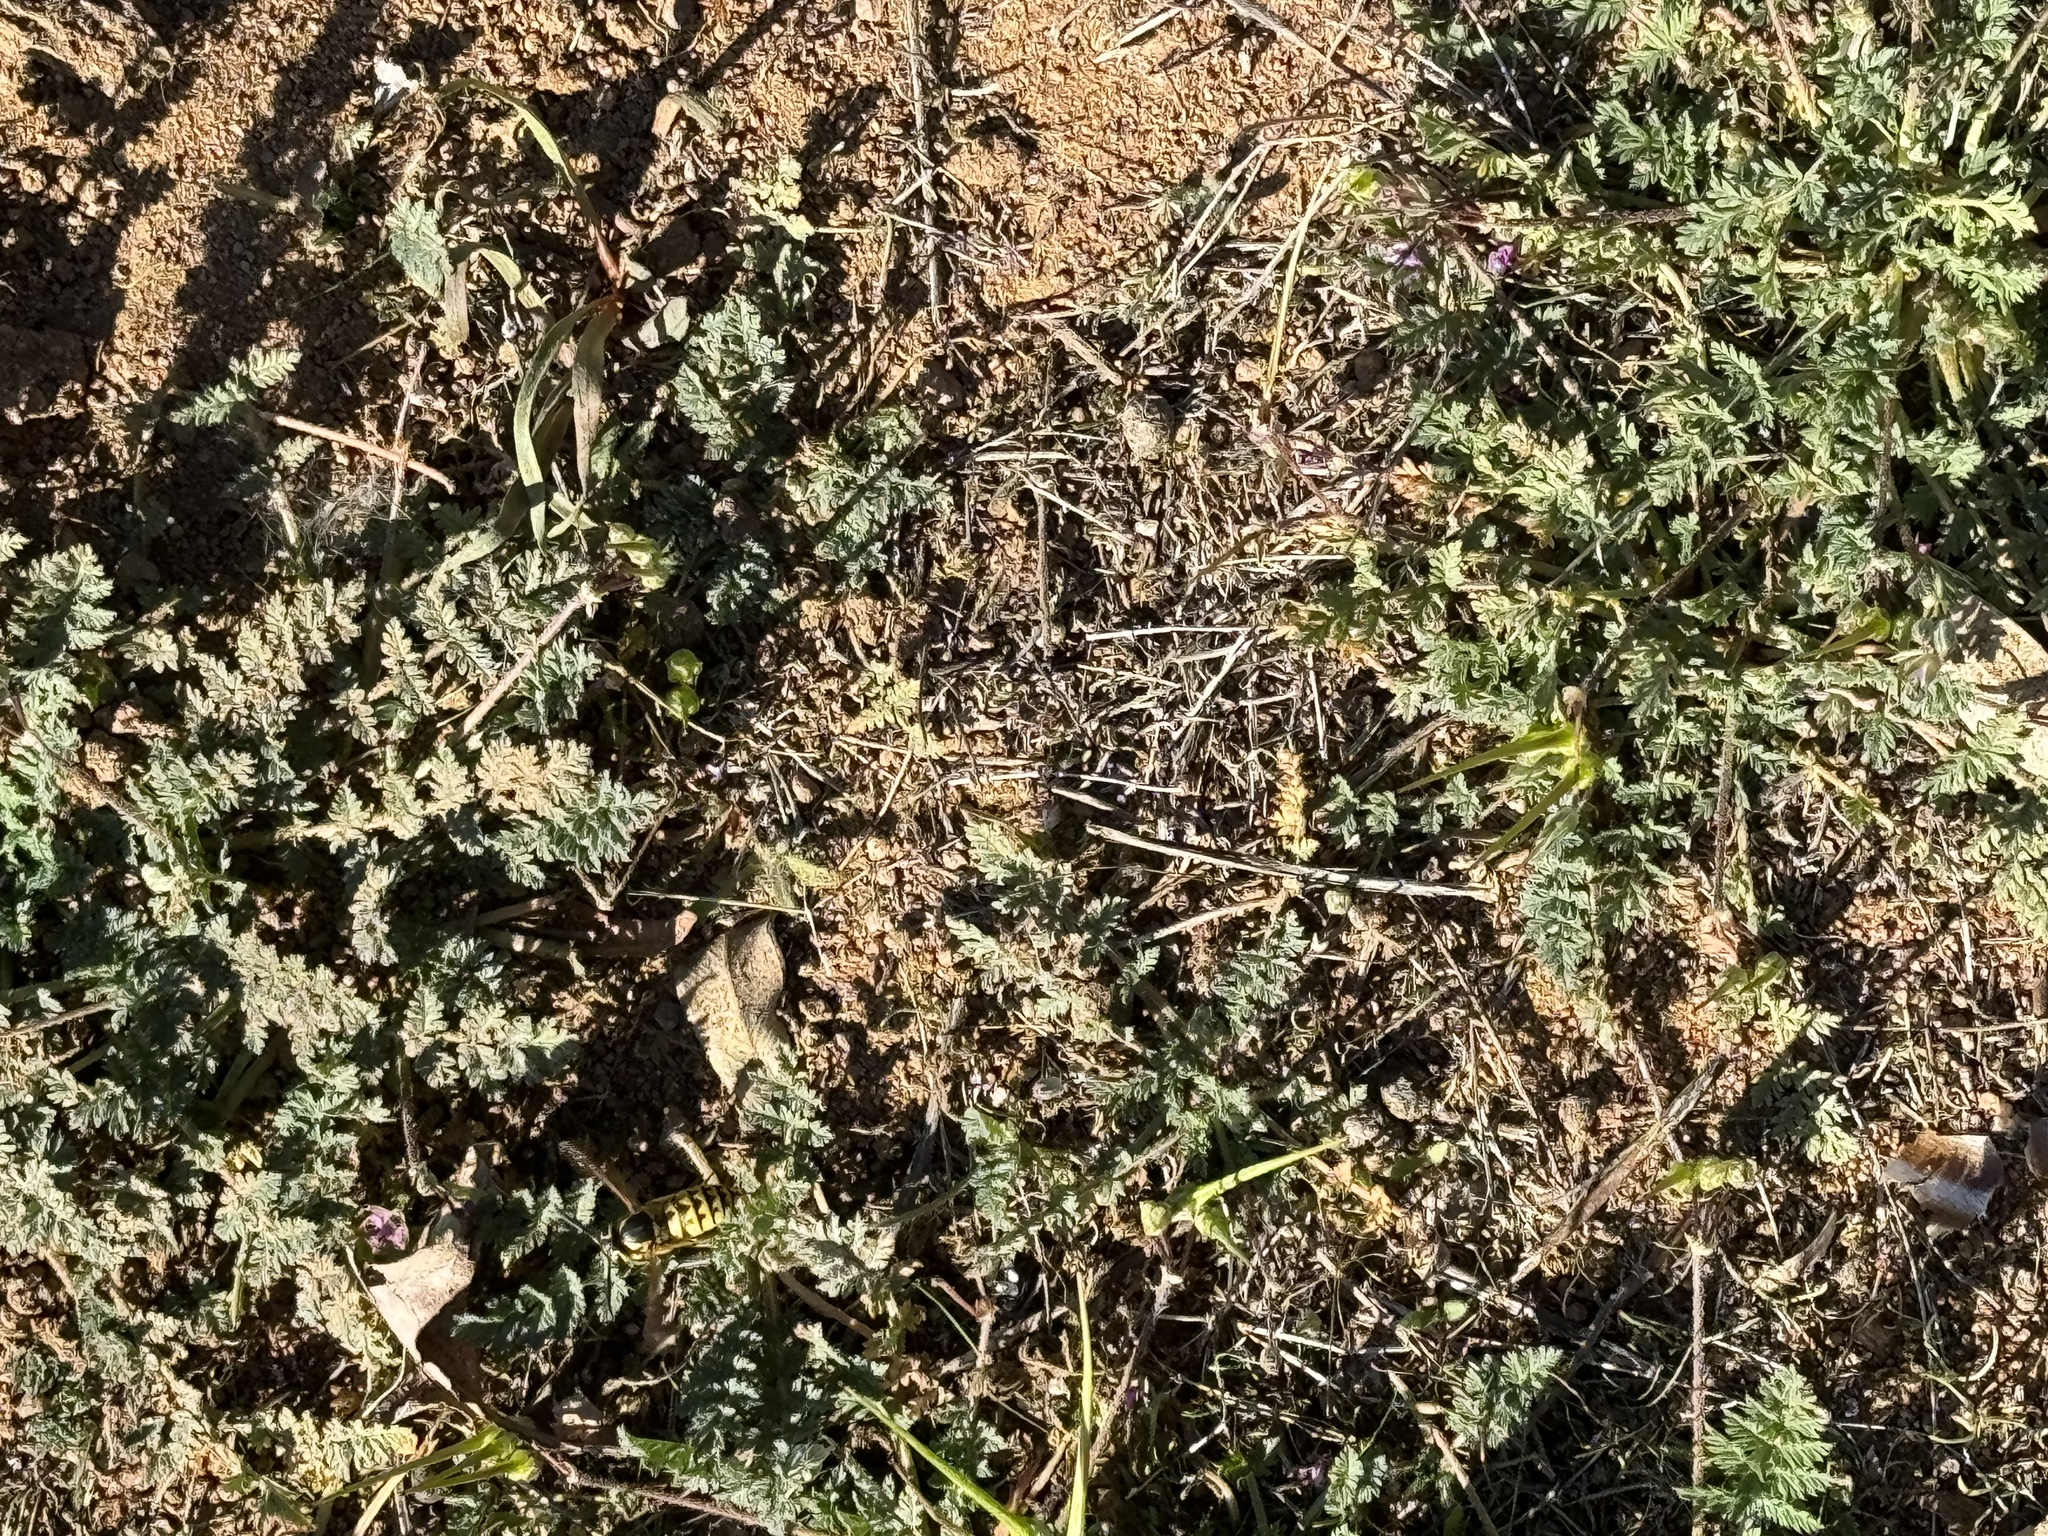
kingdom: Animalia
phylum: Arthropoda
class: Insecta
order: Hymenoptera
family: Vespidae
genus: Vespula
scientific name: Vespula pensylvanica
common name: Western yellowjacket
